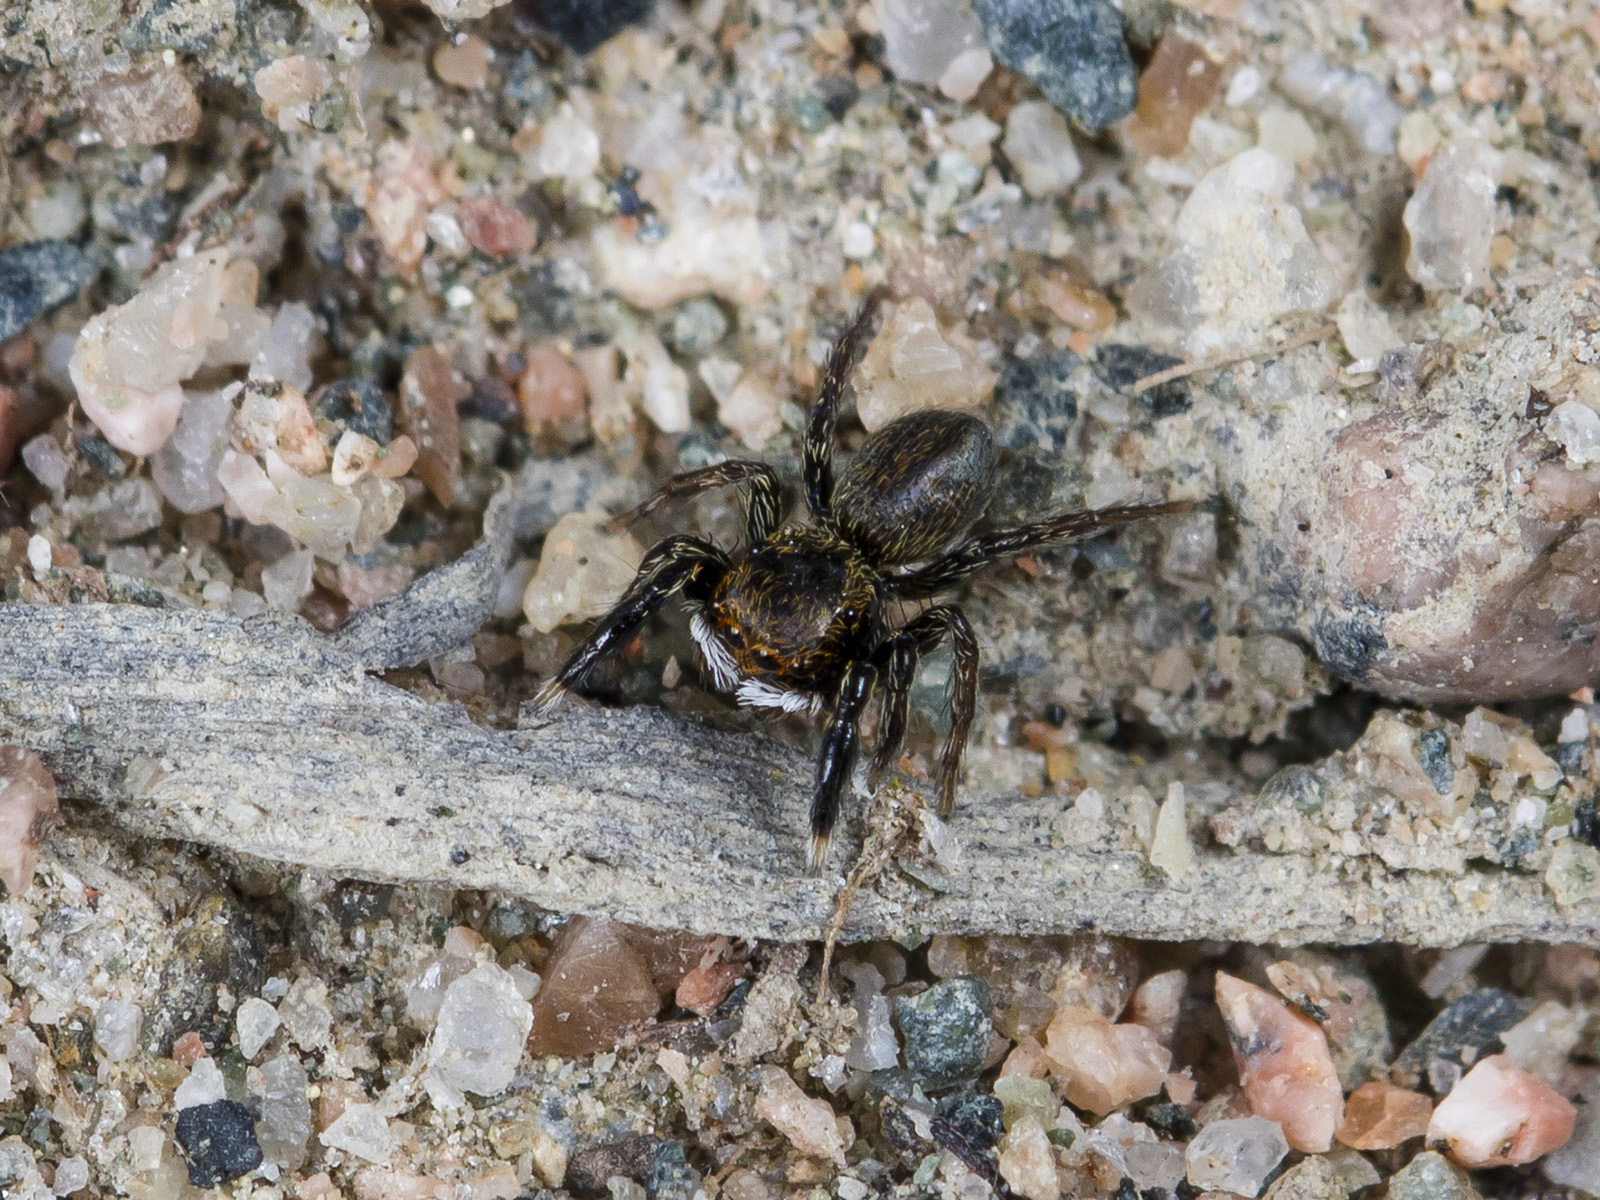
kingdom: Animalia
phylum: Arthropoda
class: Arachnida
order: Araneae
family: Salticidae
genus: Euophrys
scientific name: Euophrys frontalis
